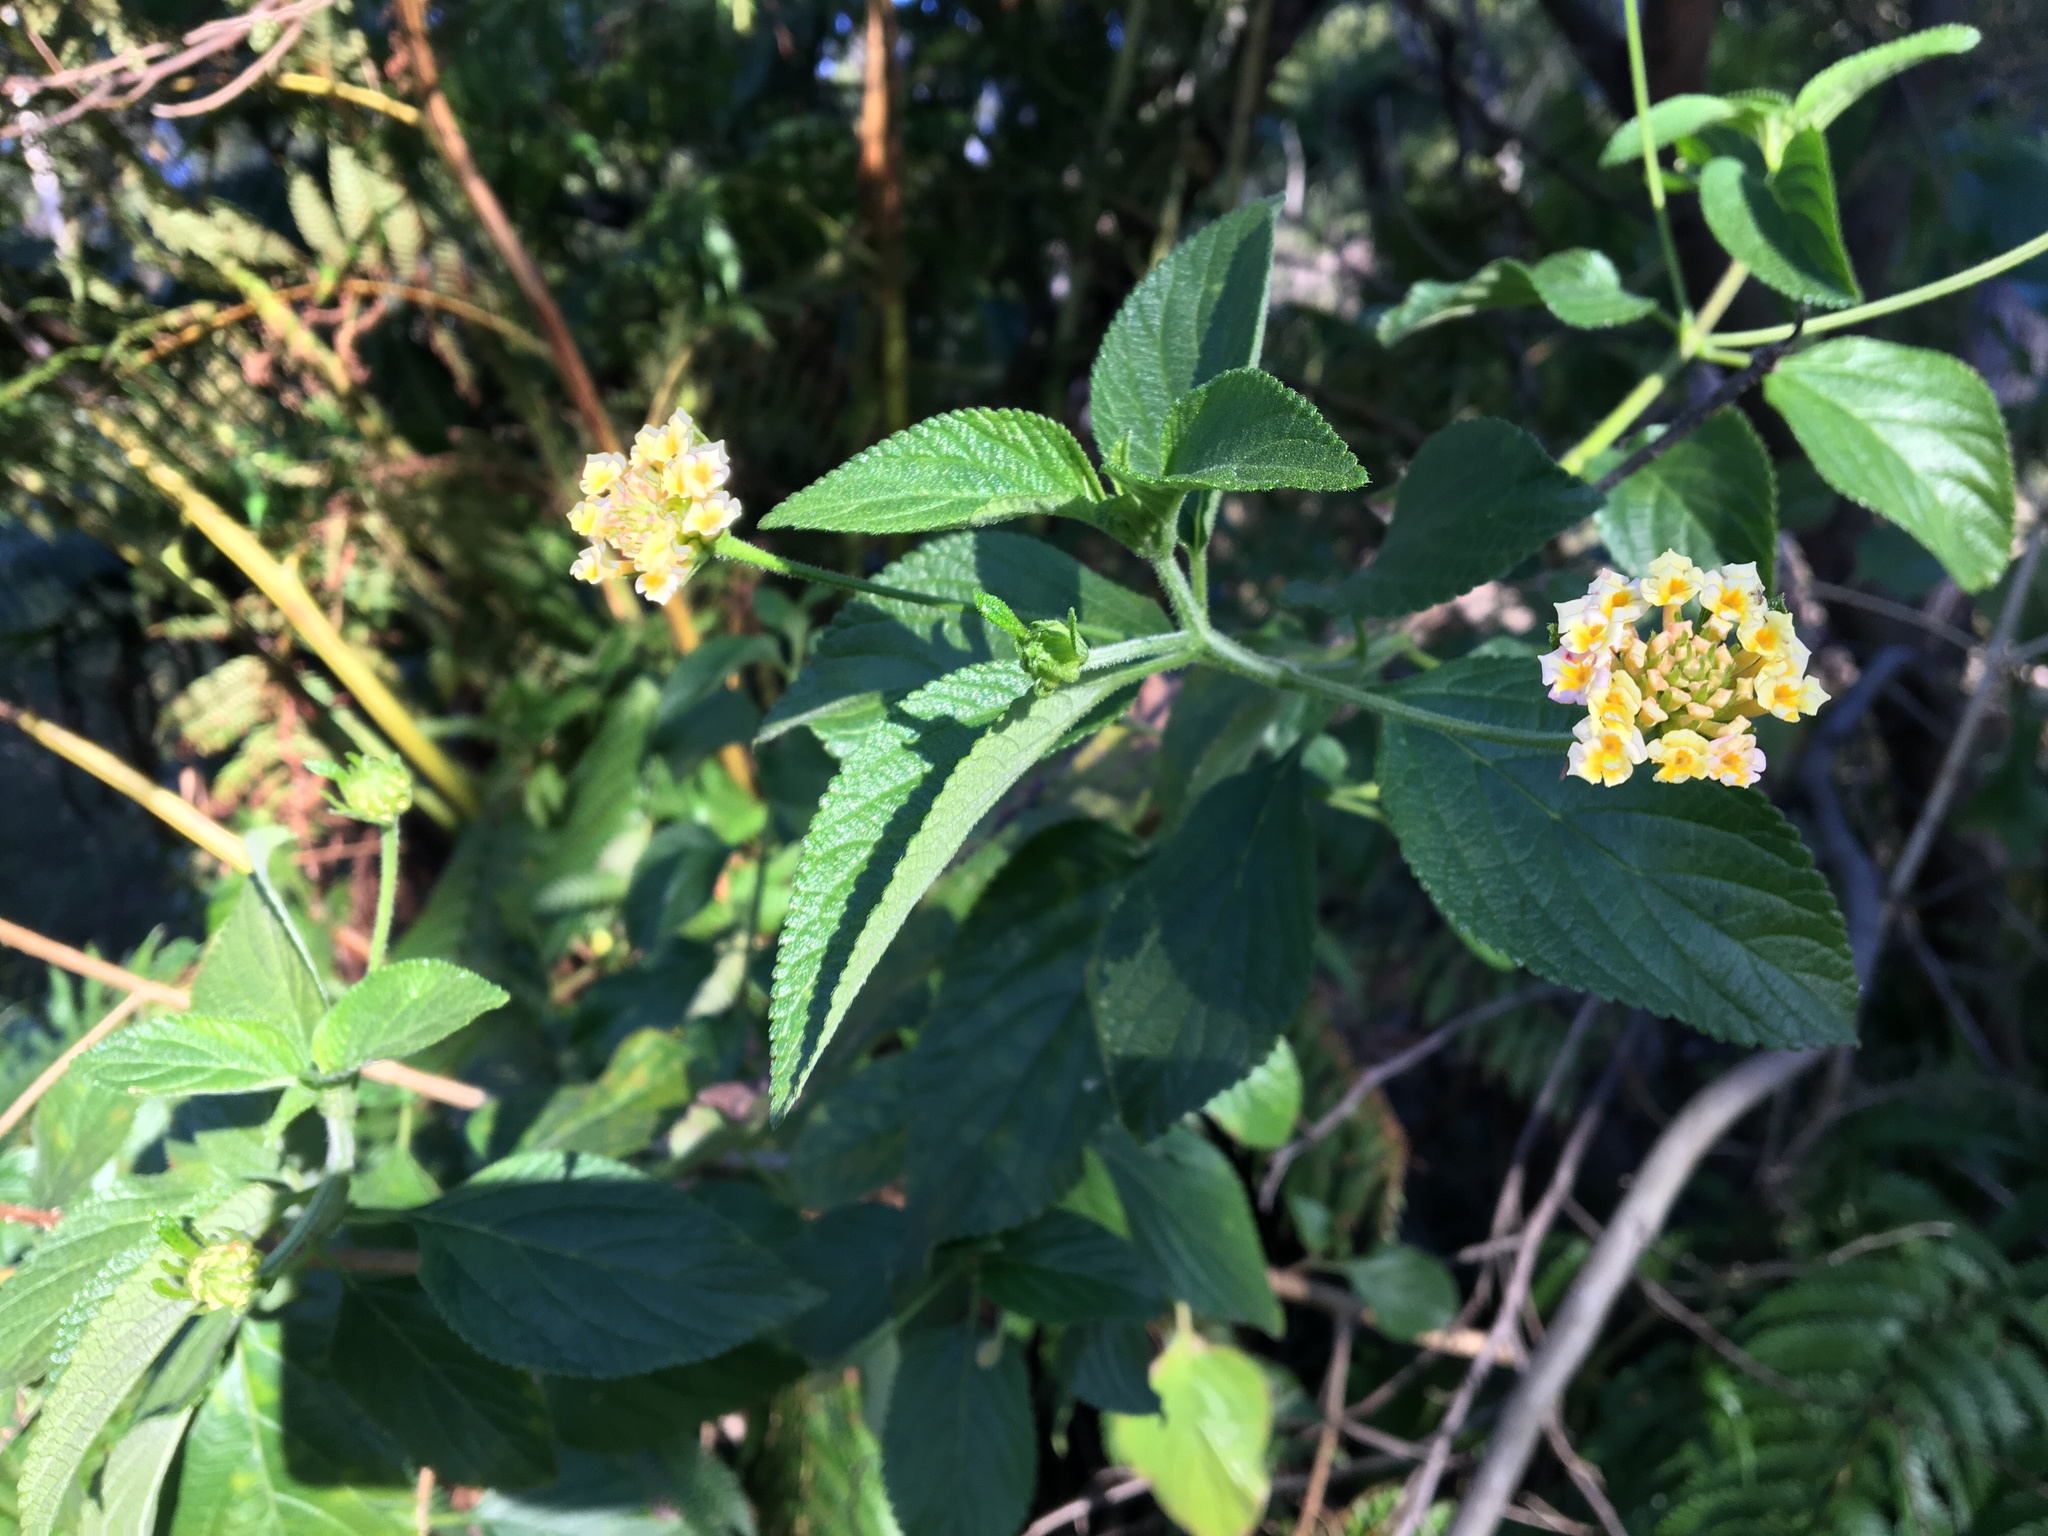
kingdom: Plantae
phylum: Tracheophyta
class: Magnoliopsida
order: Lamiales
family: Verbenaceae
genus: Lantana
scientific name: Lantana camara
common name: Lantana
